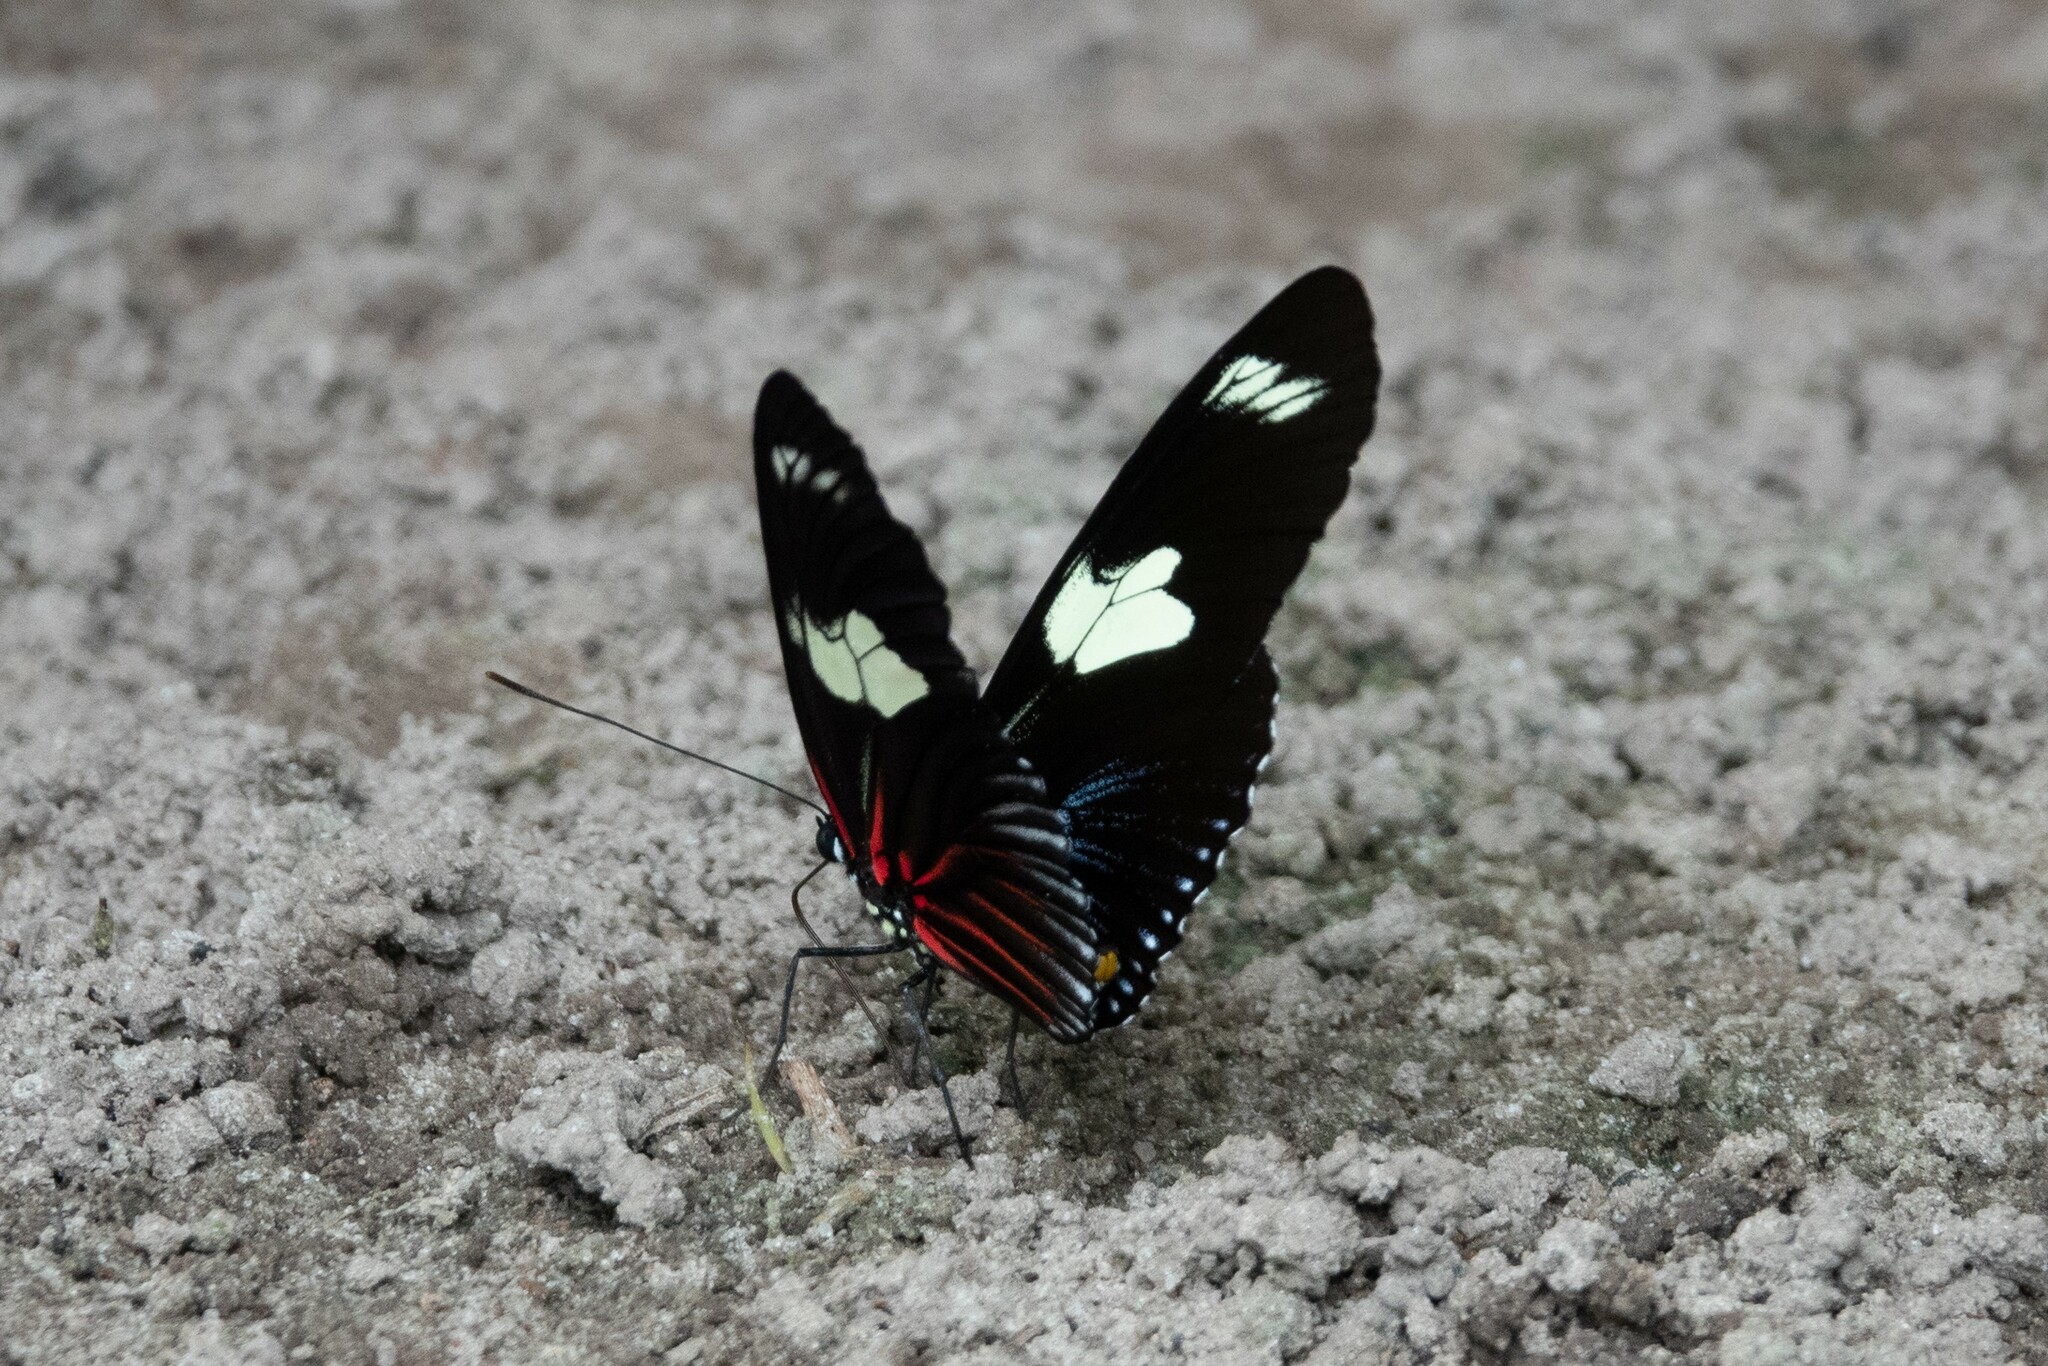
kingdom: Animalia
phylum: Arthropoda
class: Insecta
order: Lepidoptera
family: Nymphalidae
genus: Heliconius
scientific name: Heliconius doris
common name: Doris longwing
